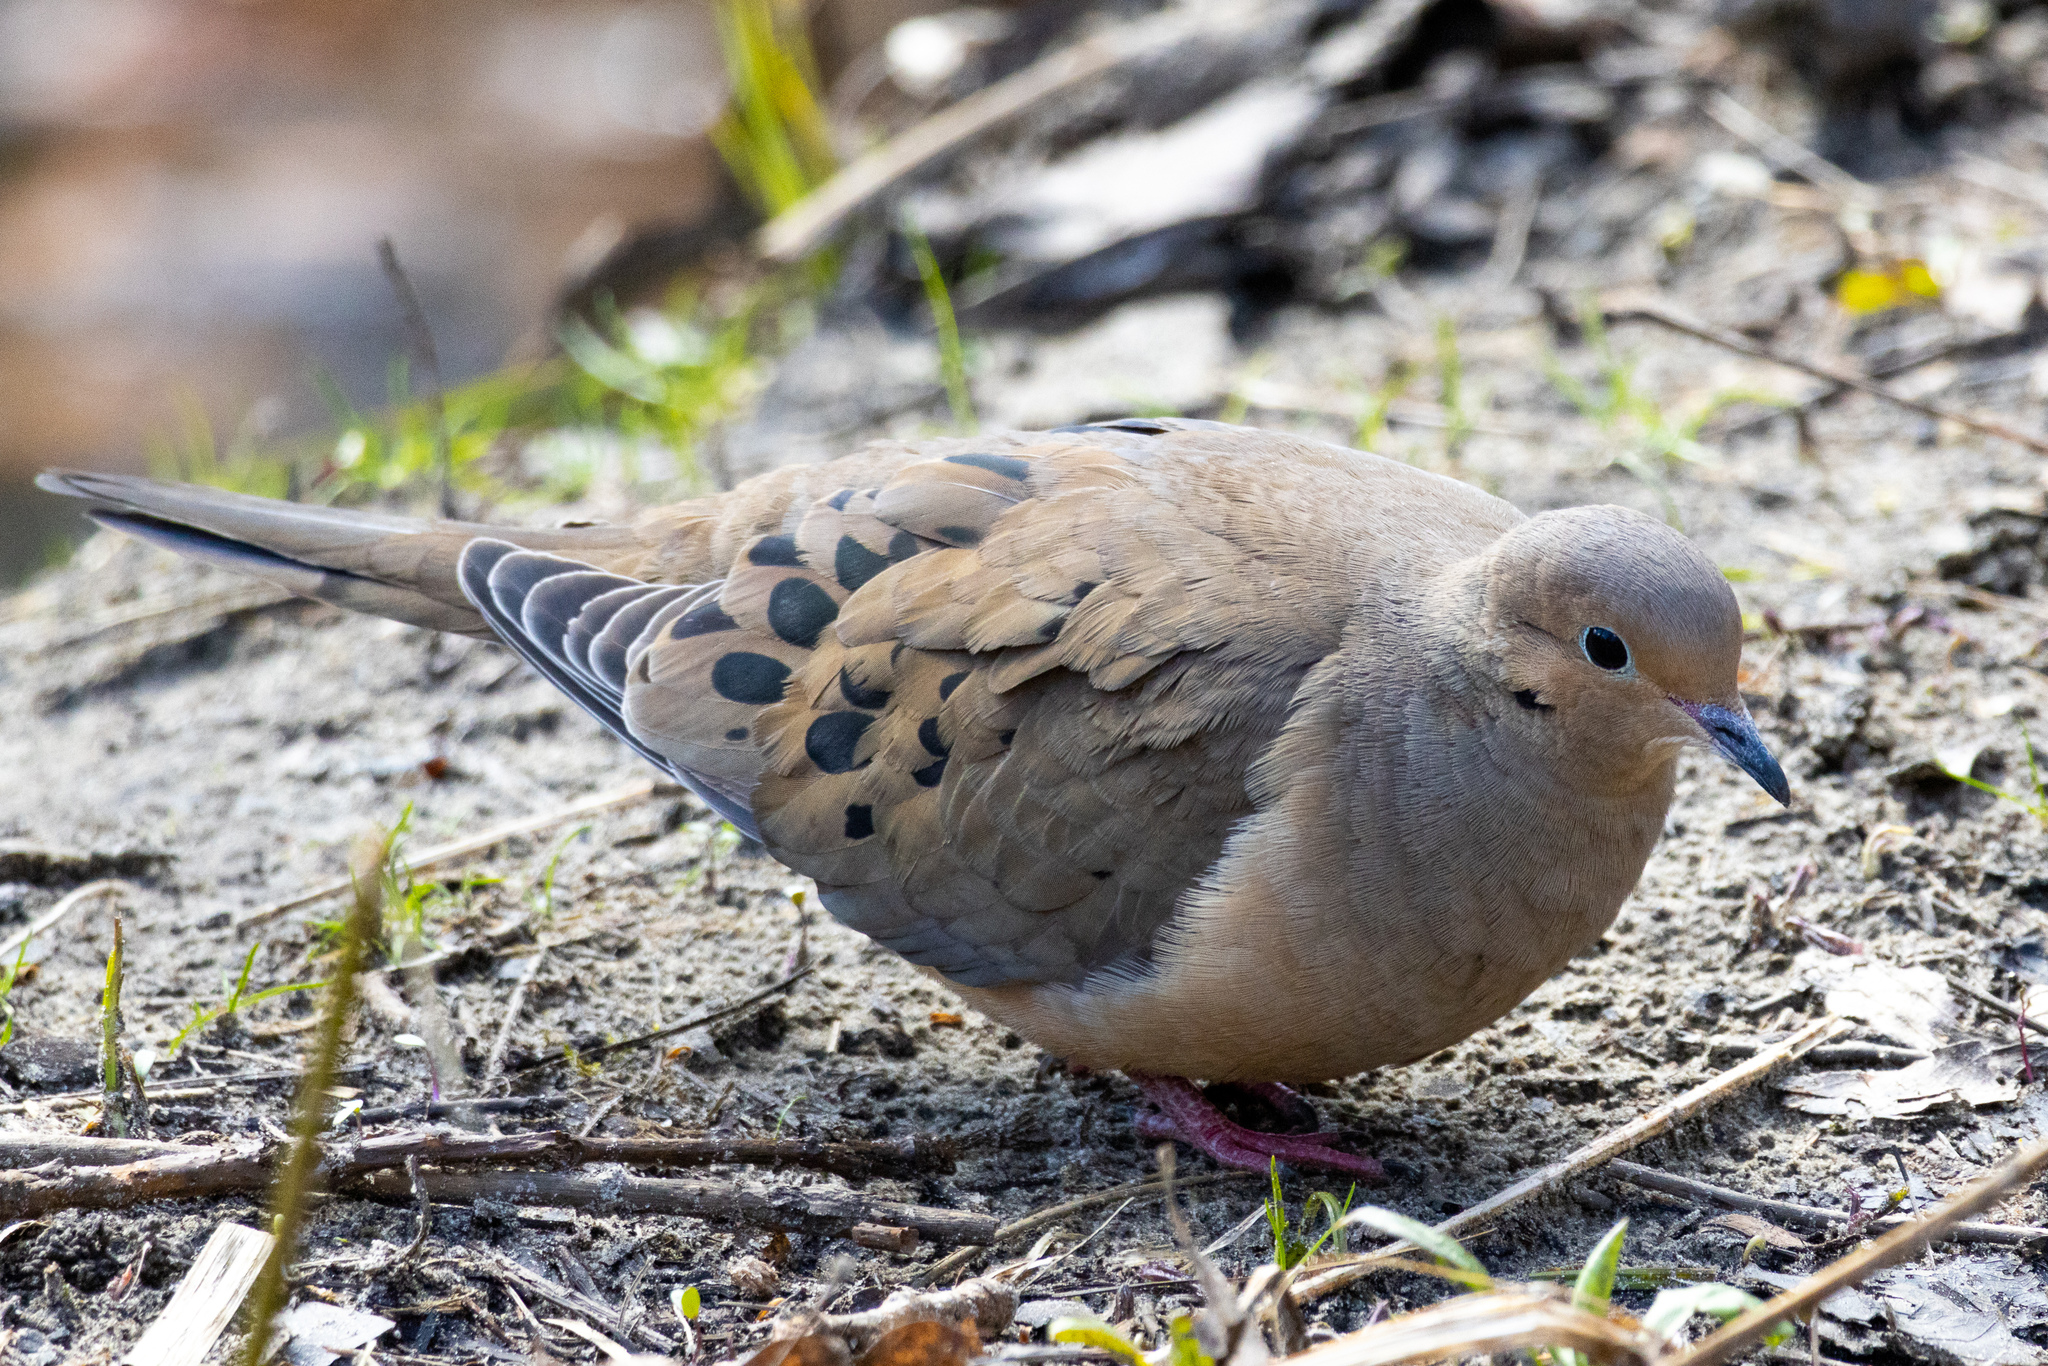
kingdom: Animalia
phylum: Chordata
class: Aves
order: Columbiformes
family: Columbidae
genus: Zenaida
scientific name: Zenaida macroura
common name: Mourning dove
